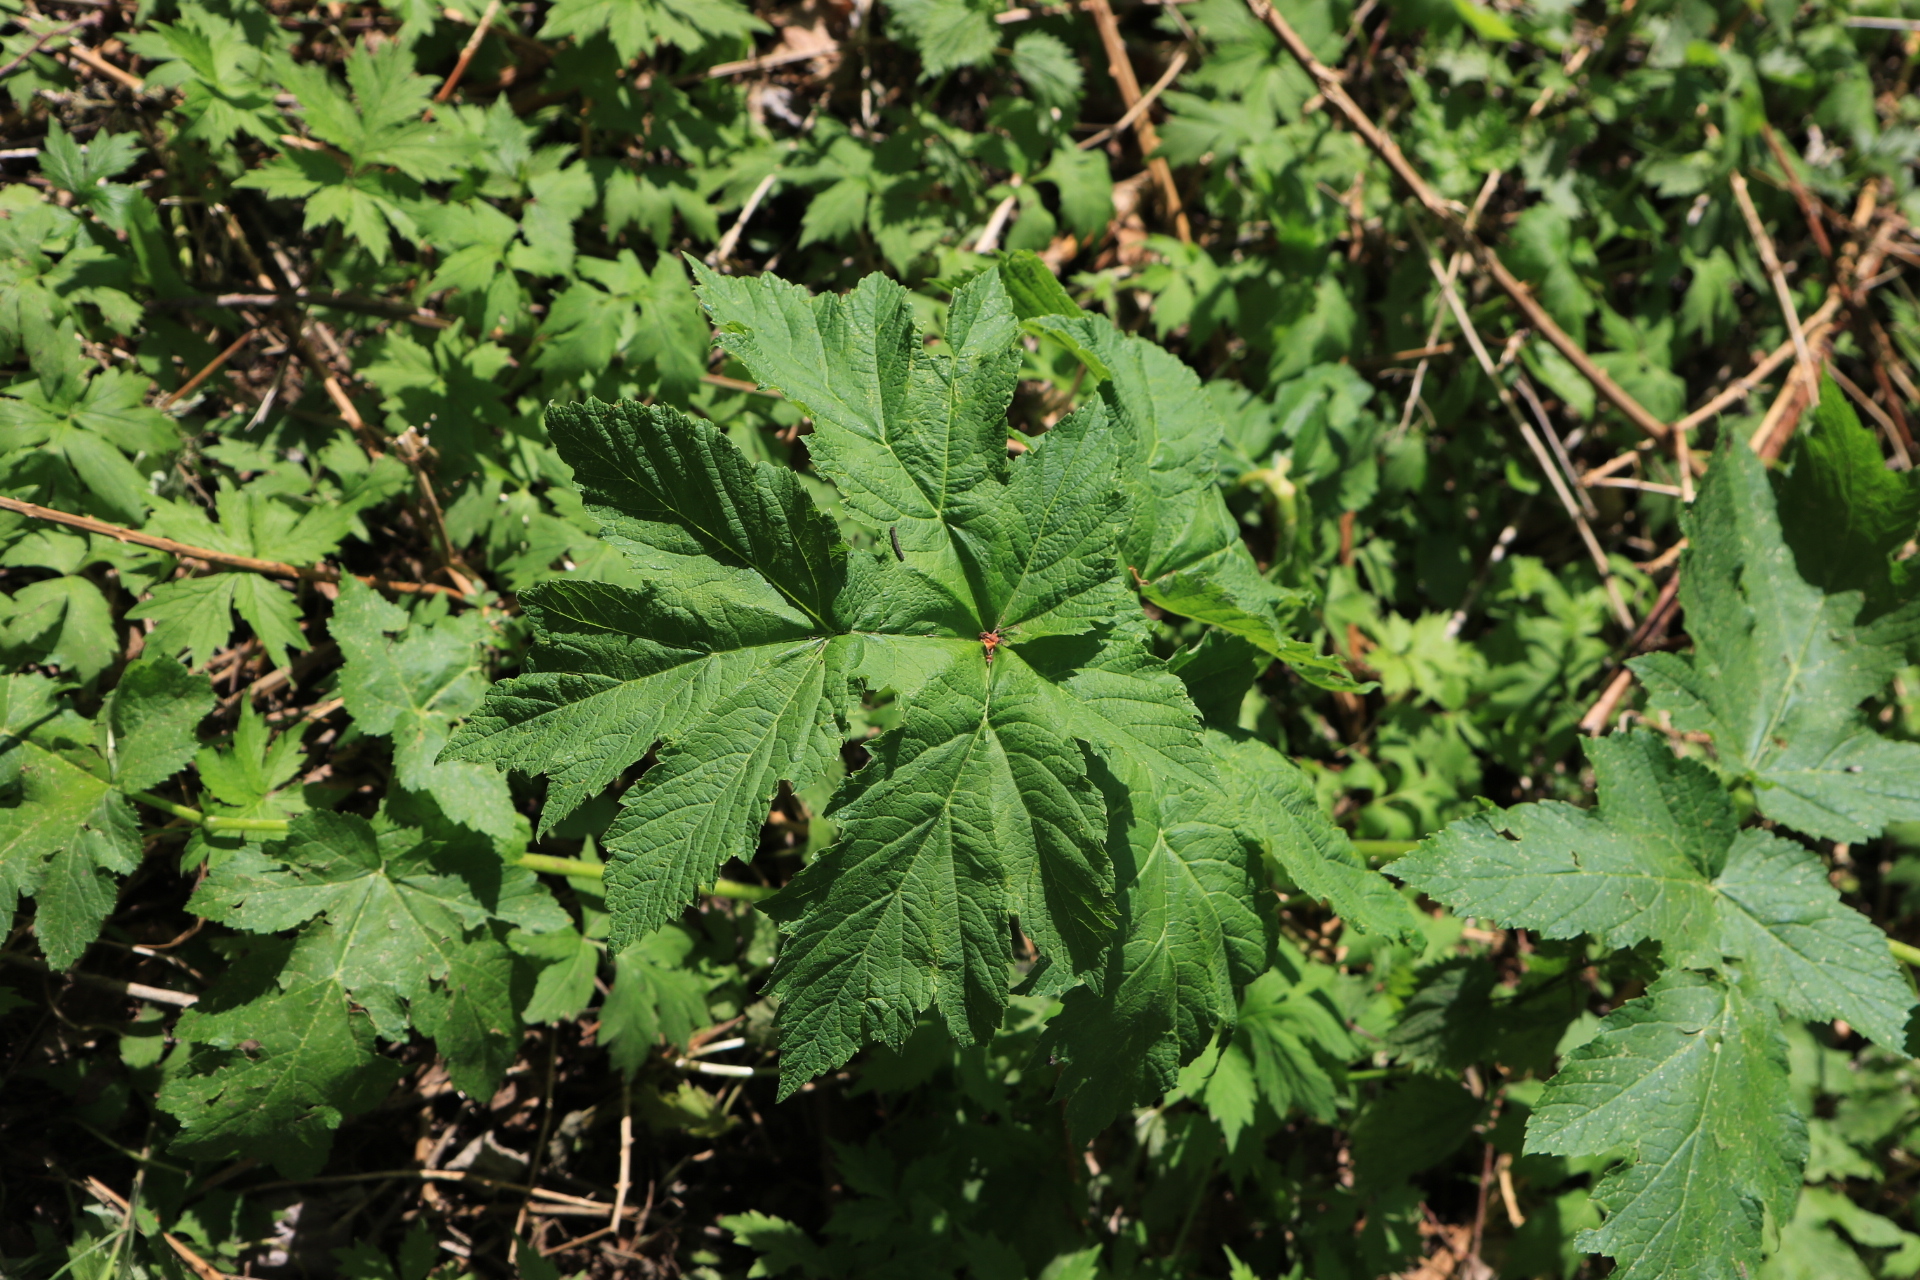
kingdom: Plantae
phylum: Tracheophyta
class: Magnoliopsida
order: Apiales
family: Apiaceae
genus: Heracleum
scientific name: Heracleum maximum
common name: American cow parsnip
